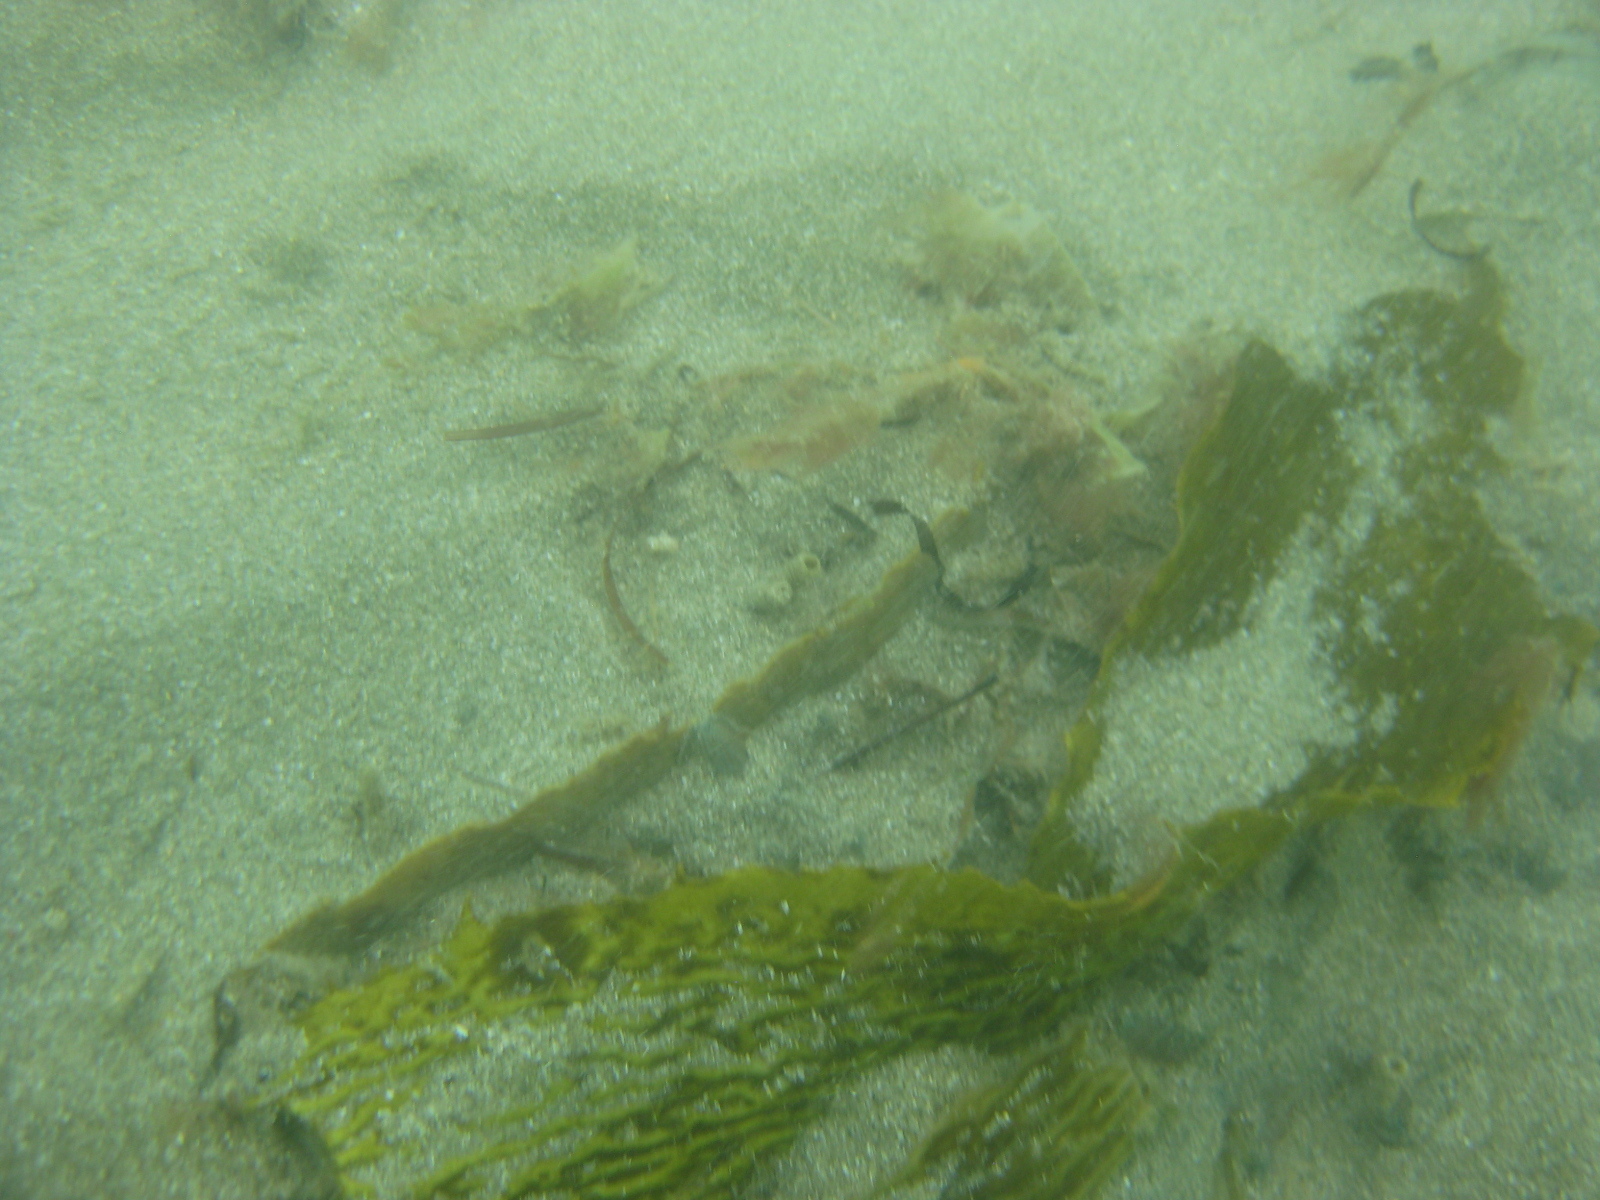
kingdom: Chromista
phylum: Ochrophyta
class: Phaeophyceae
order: Laminariales
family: Lessoniaceae
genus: Ecklonia
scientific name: Ecklonia radiata
